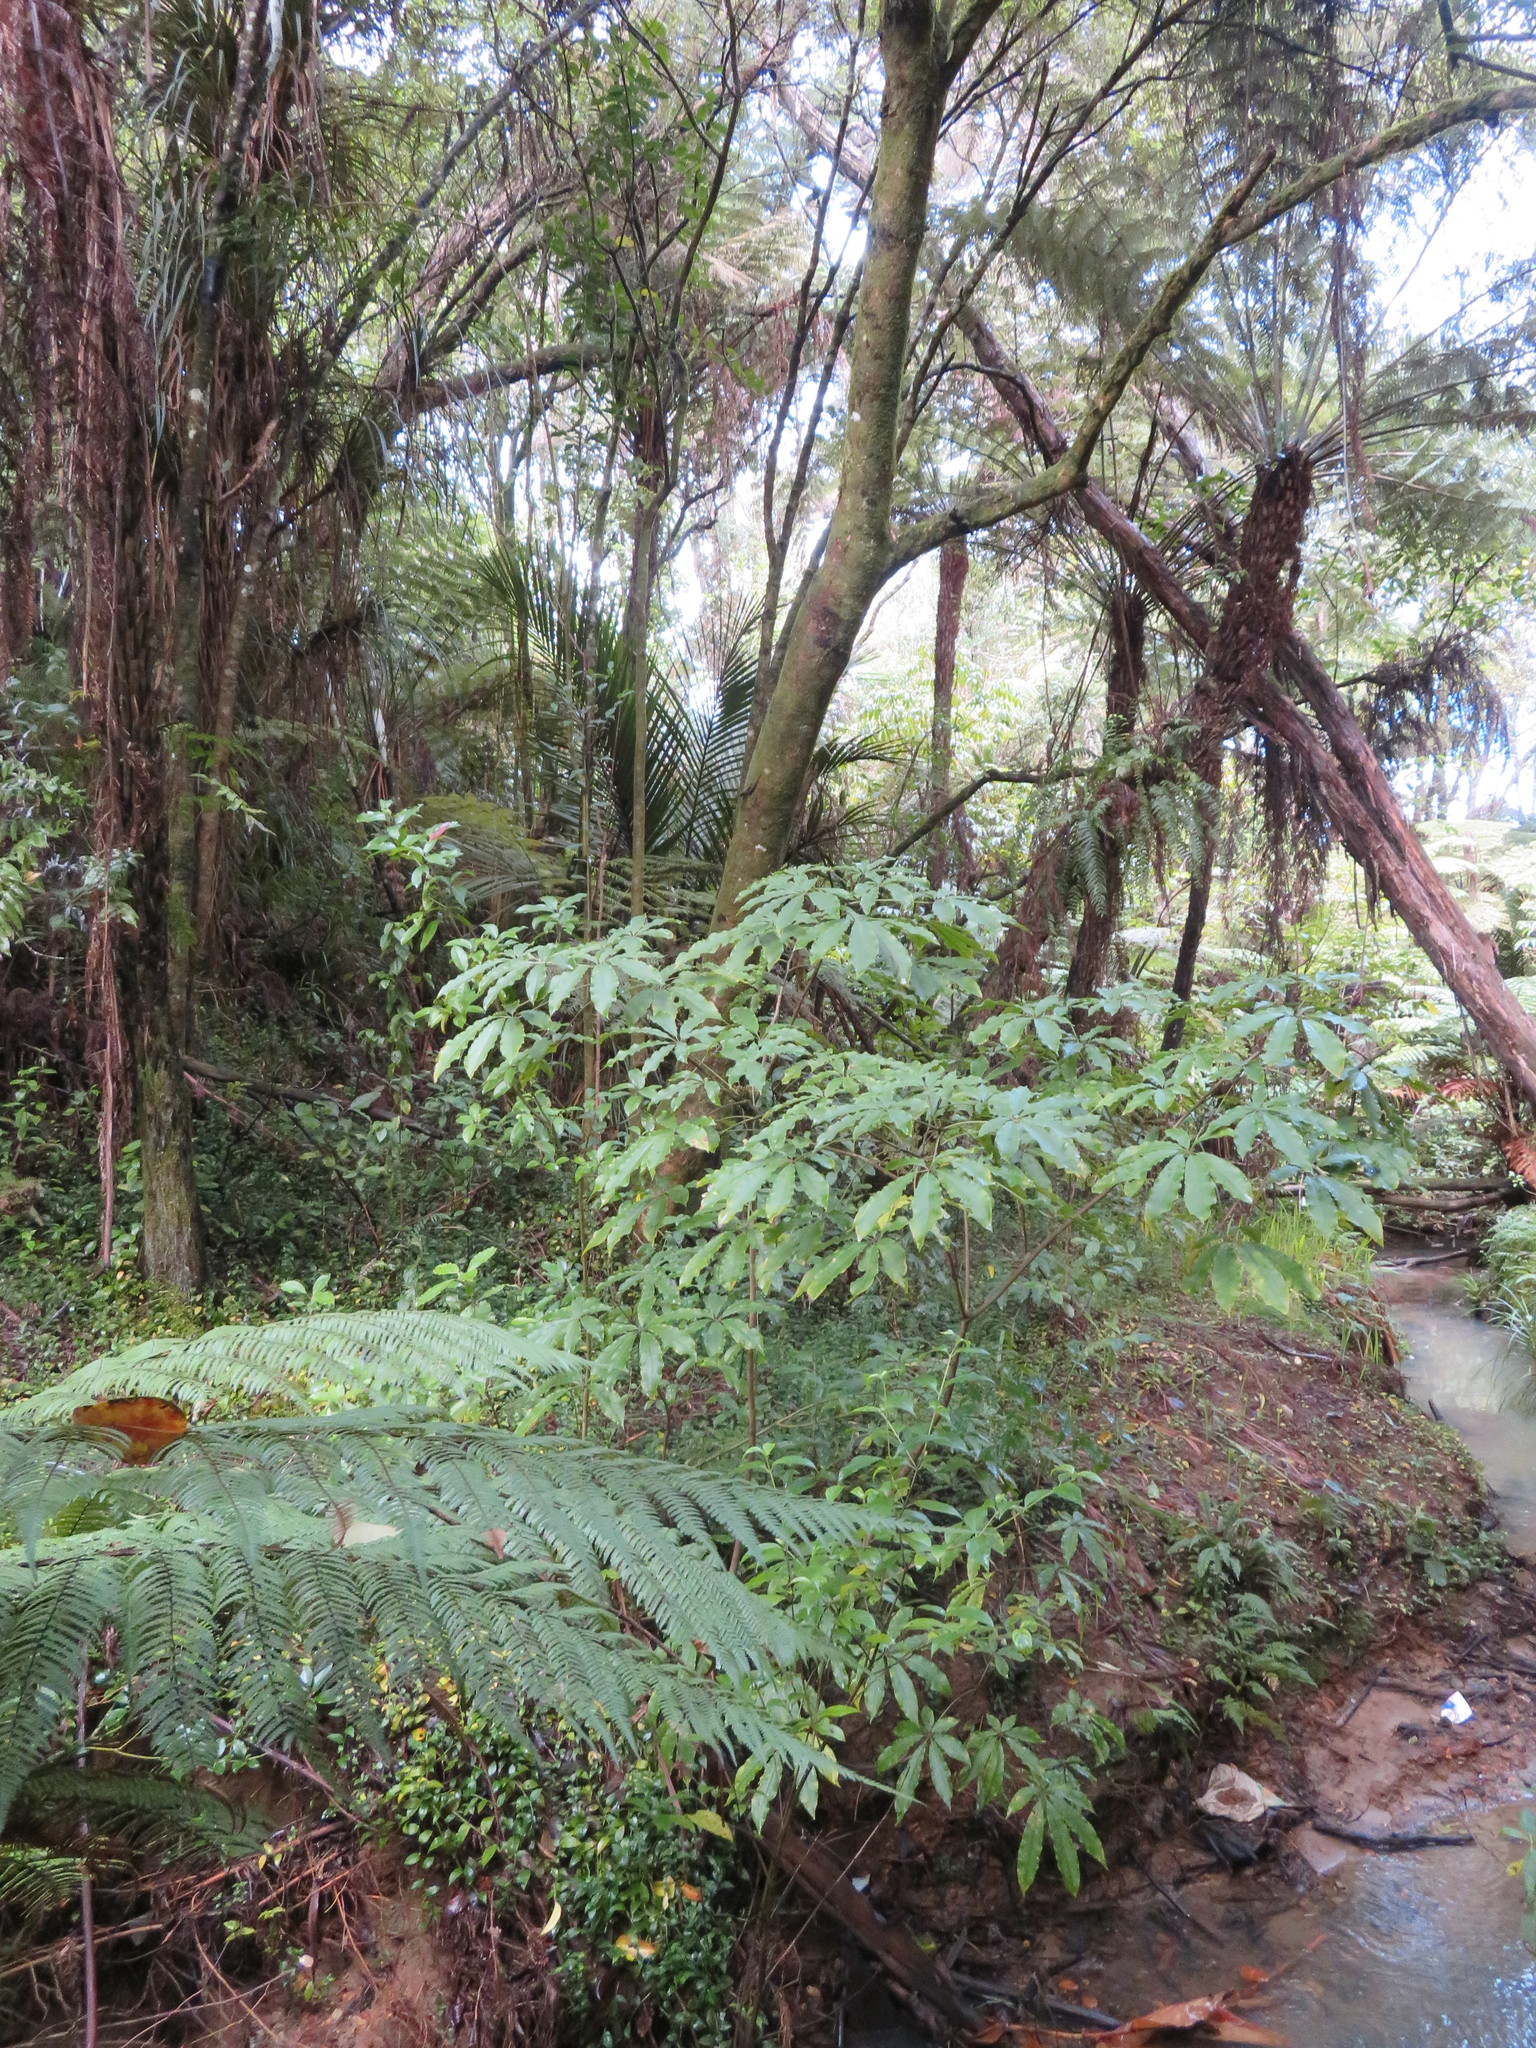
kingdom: Plantae
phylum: Tracheophyta
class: Magnoliopsida
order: Apiales
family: Araliaceae
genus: Schefflera
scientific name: Schefflera digitata
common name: Pate
